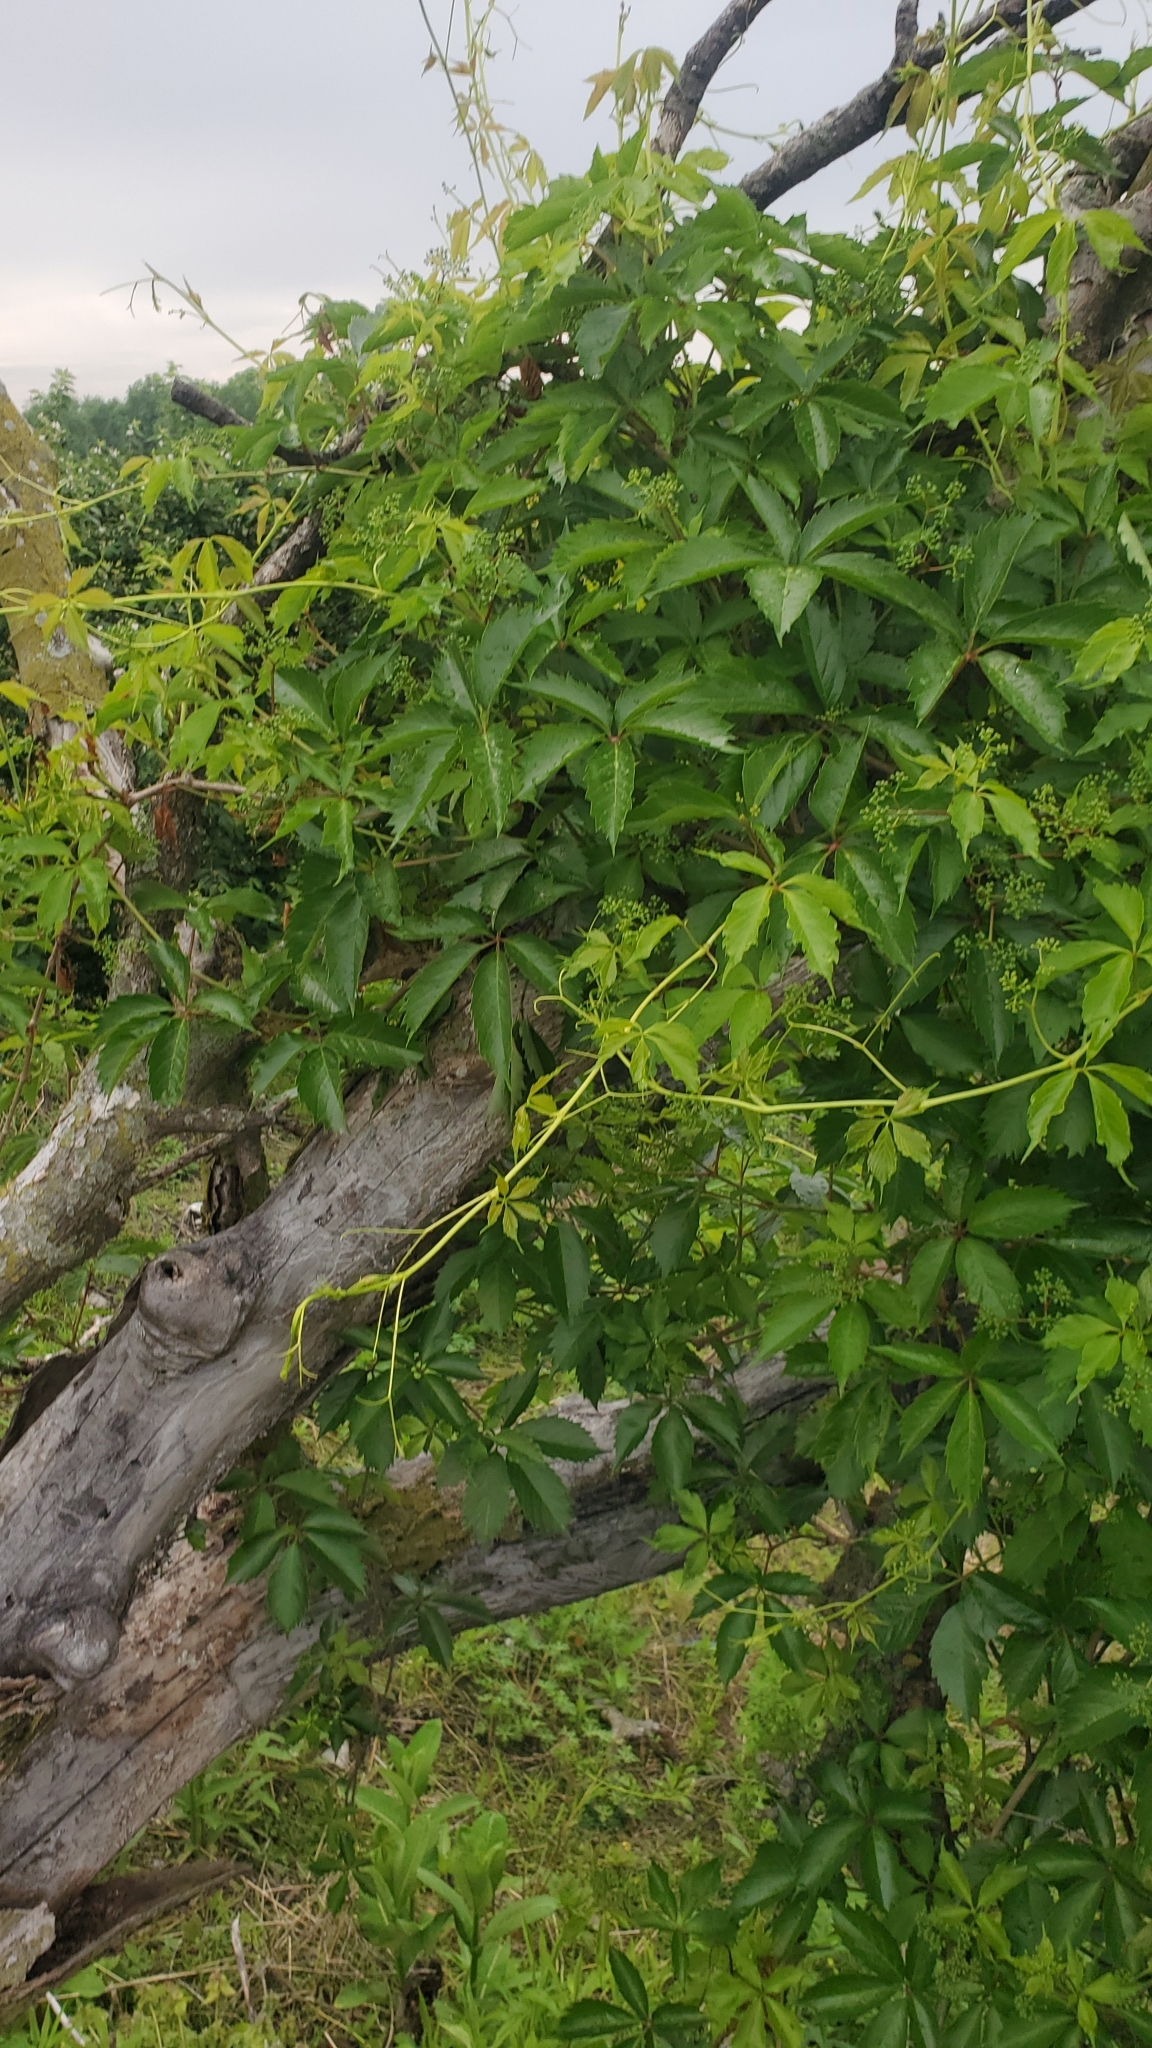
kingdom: Plantae
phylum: Tracheophyta
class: Magnoliopsida
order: Vitales
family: Vitaceae
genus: Parthenocissus
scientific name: Parthenocissus quinquefolia
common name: Virginia-creeper
